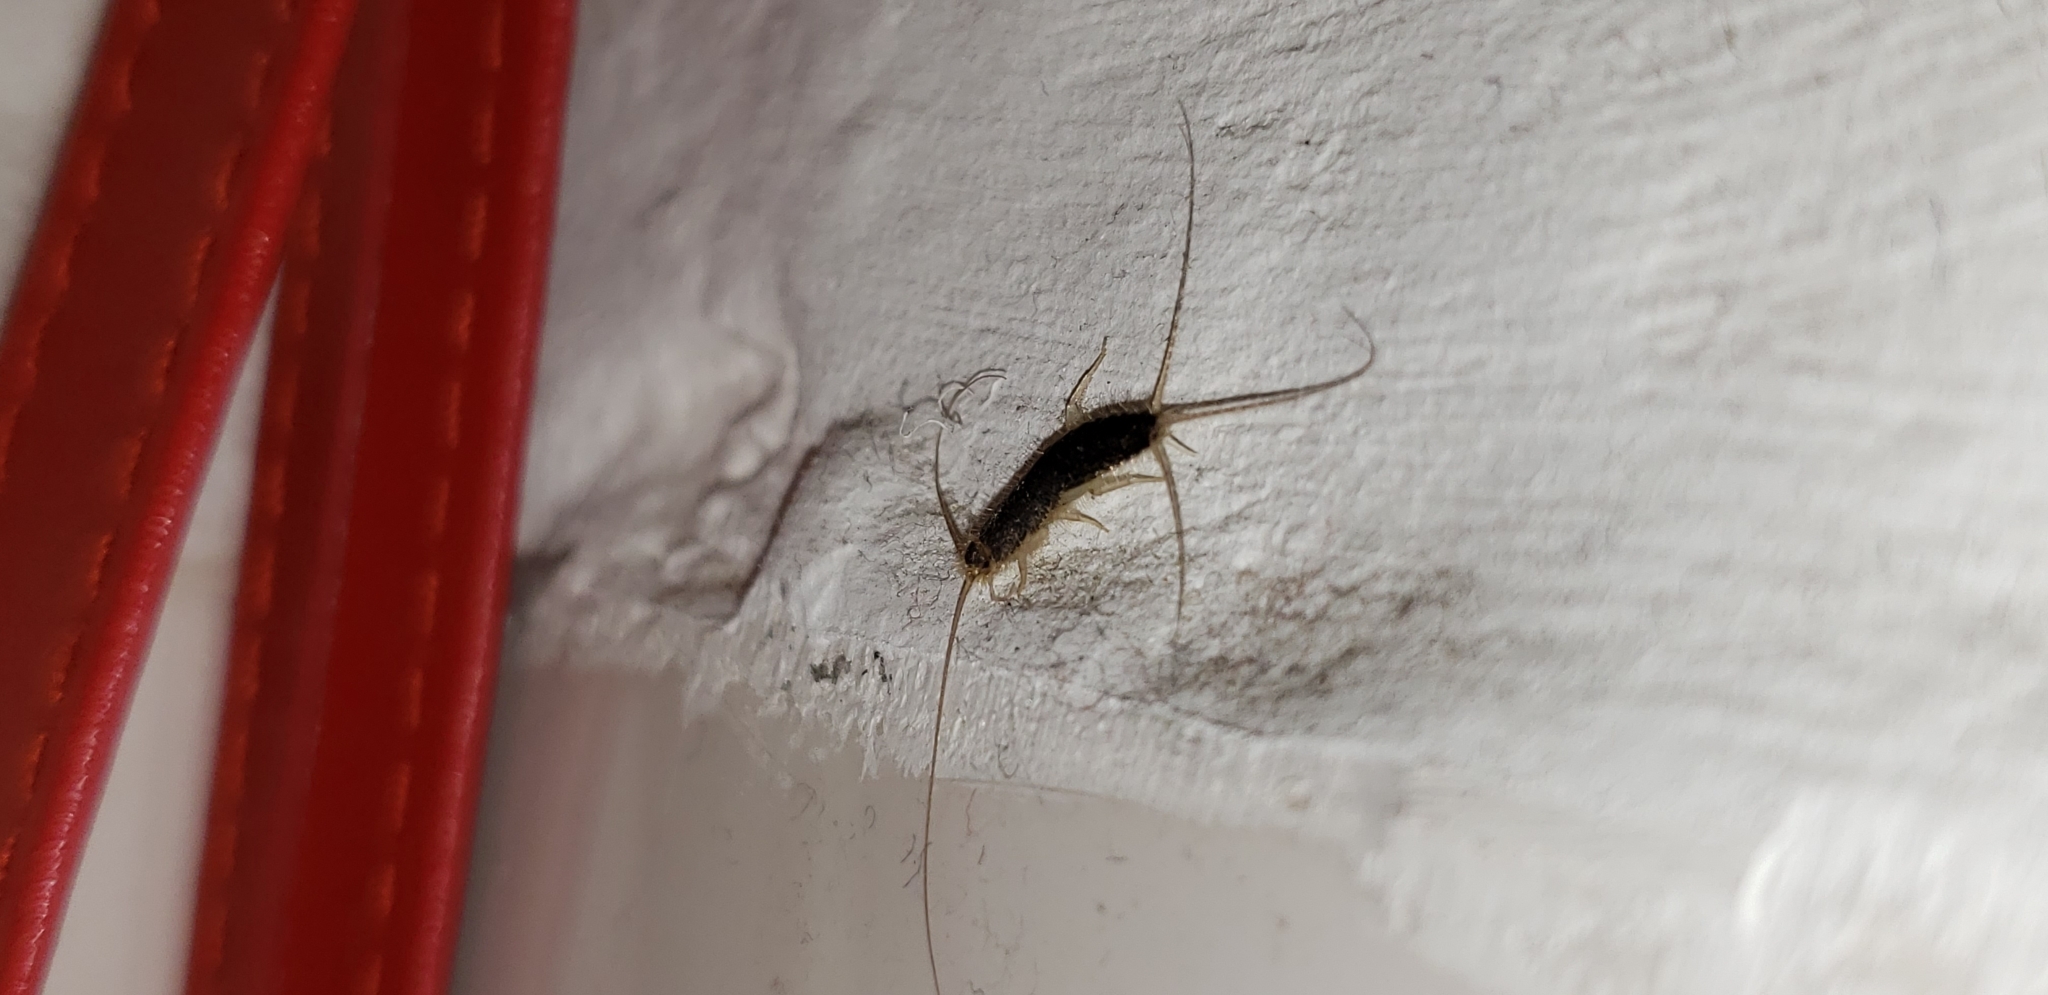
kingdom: Animalia
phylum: Arthropoda
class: Insecta
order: Zygentoma
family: Lepismatidae
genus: Ctenolepisma
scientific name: Ctenolepisma longicaudatum
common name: Silverfish
